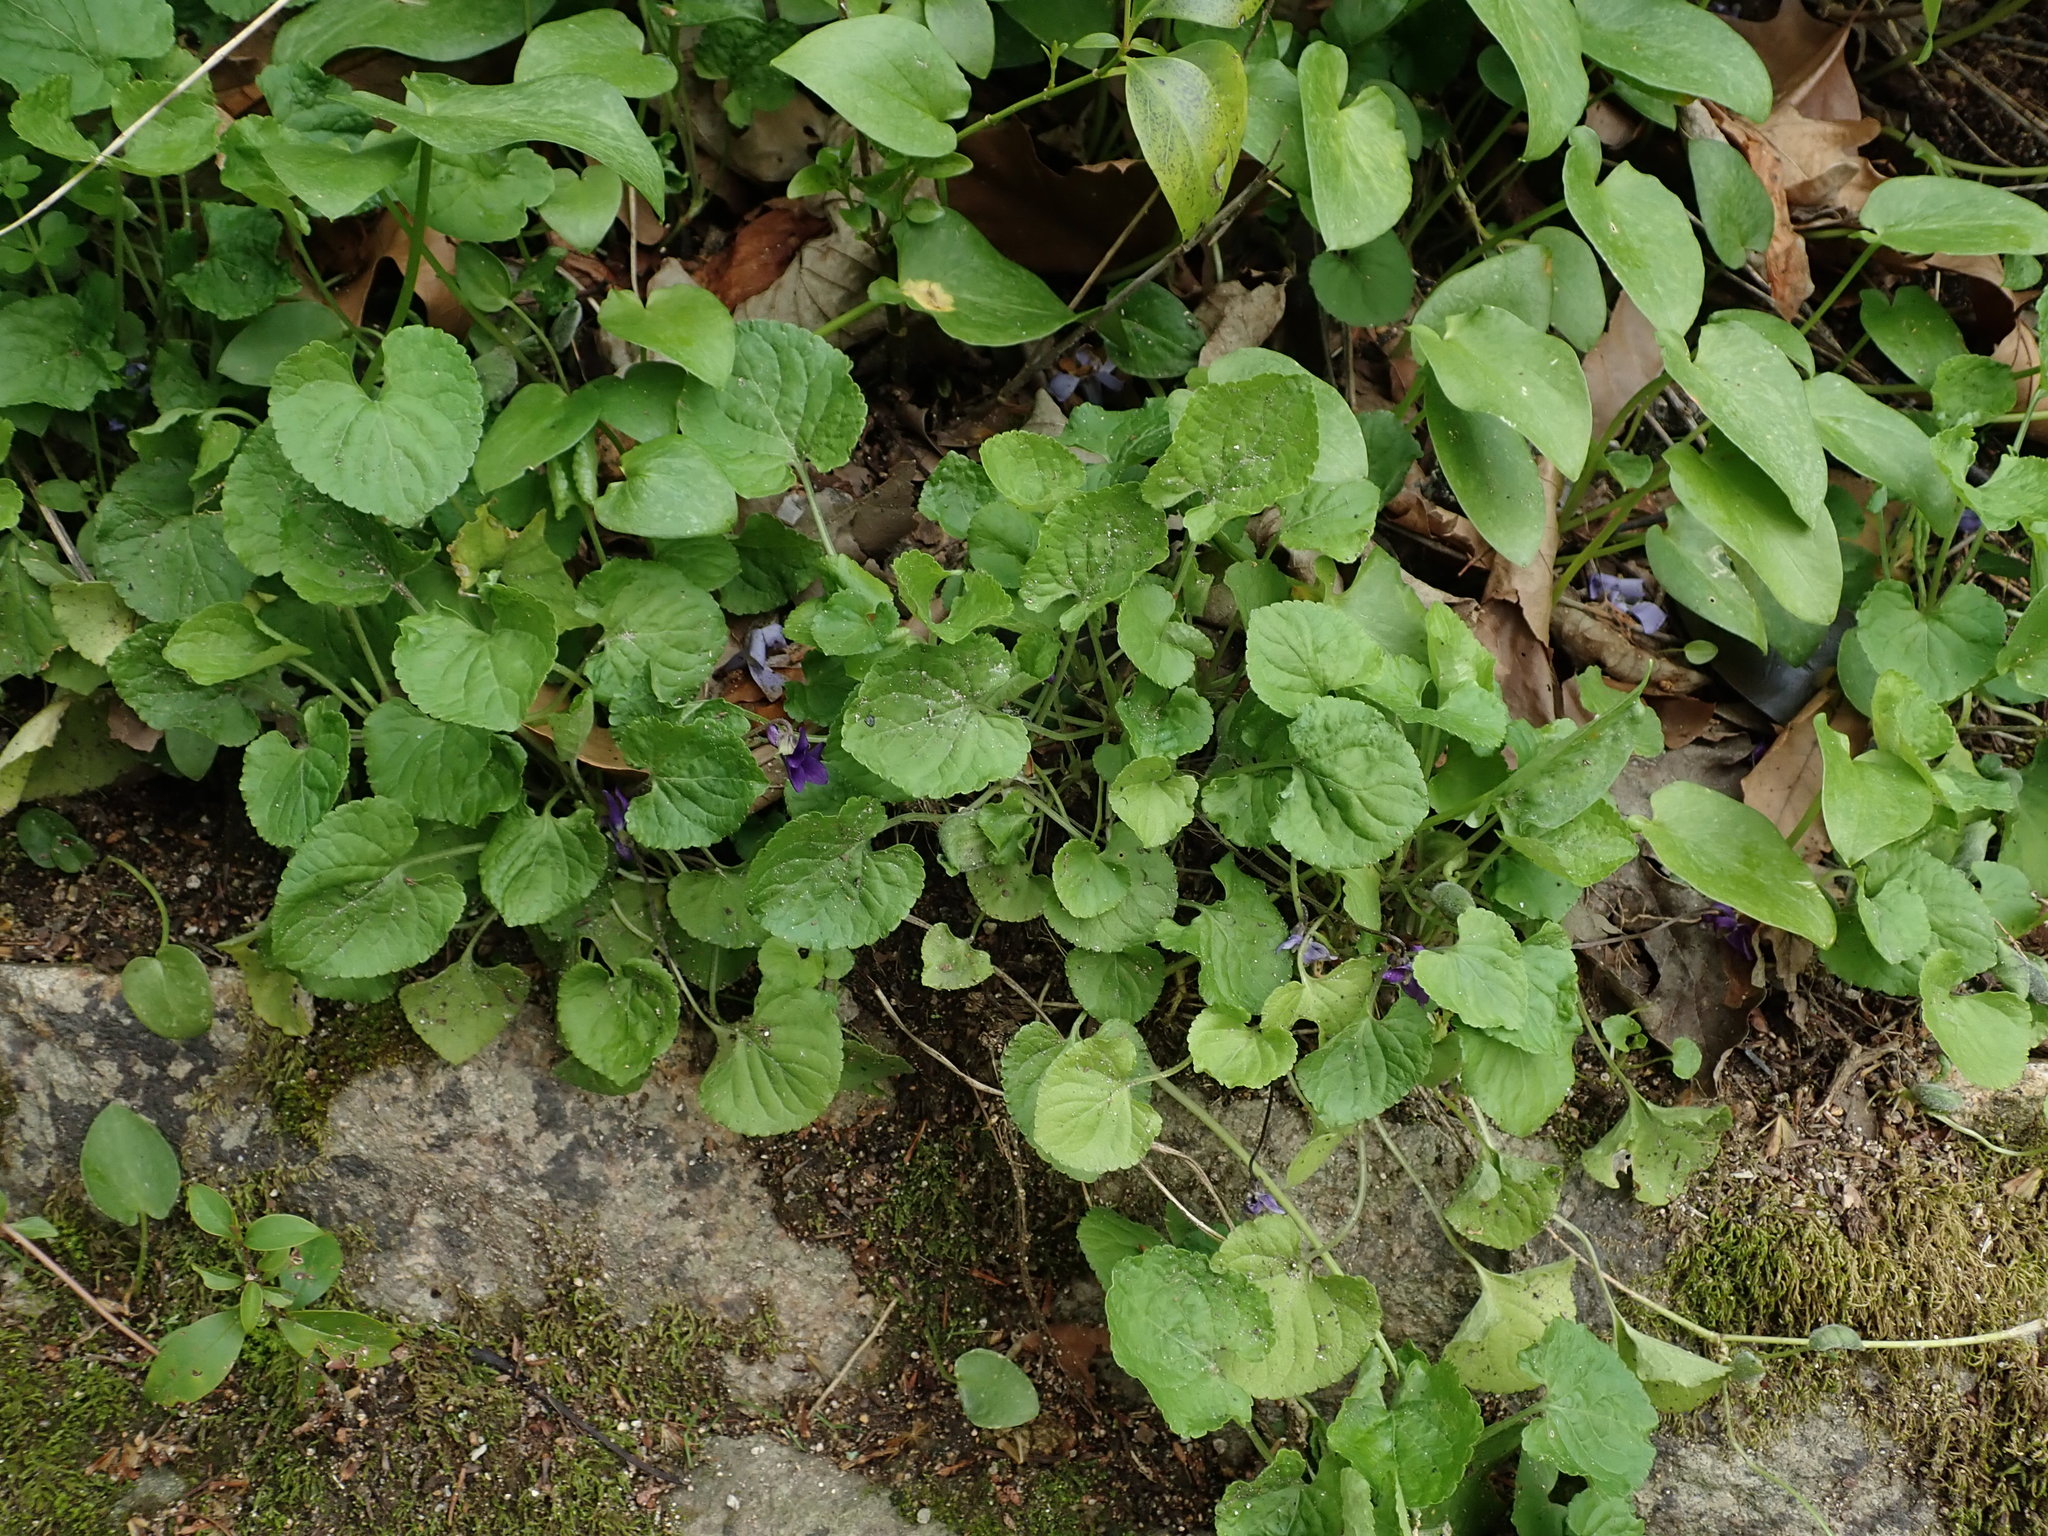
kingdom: Plantae
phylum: Tracheophyta
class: Magnoliopsida
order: Malpighiales
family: Violaceae
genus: Viola
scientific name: Viola odorata
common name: Sweet violet
